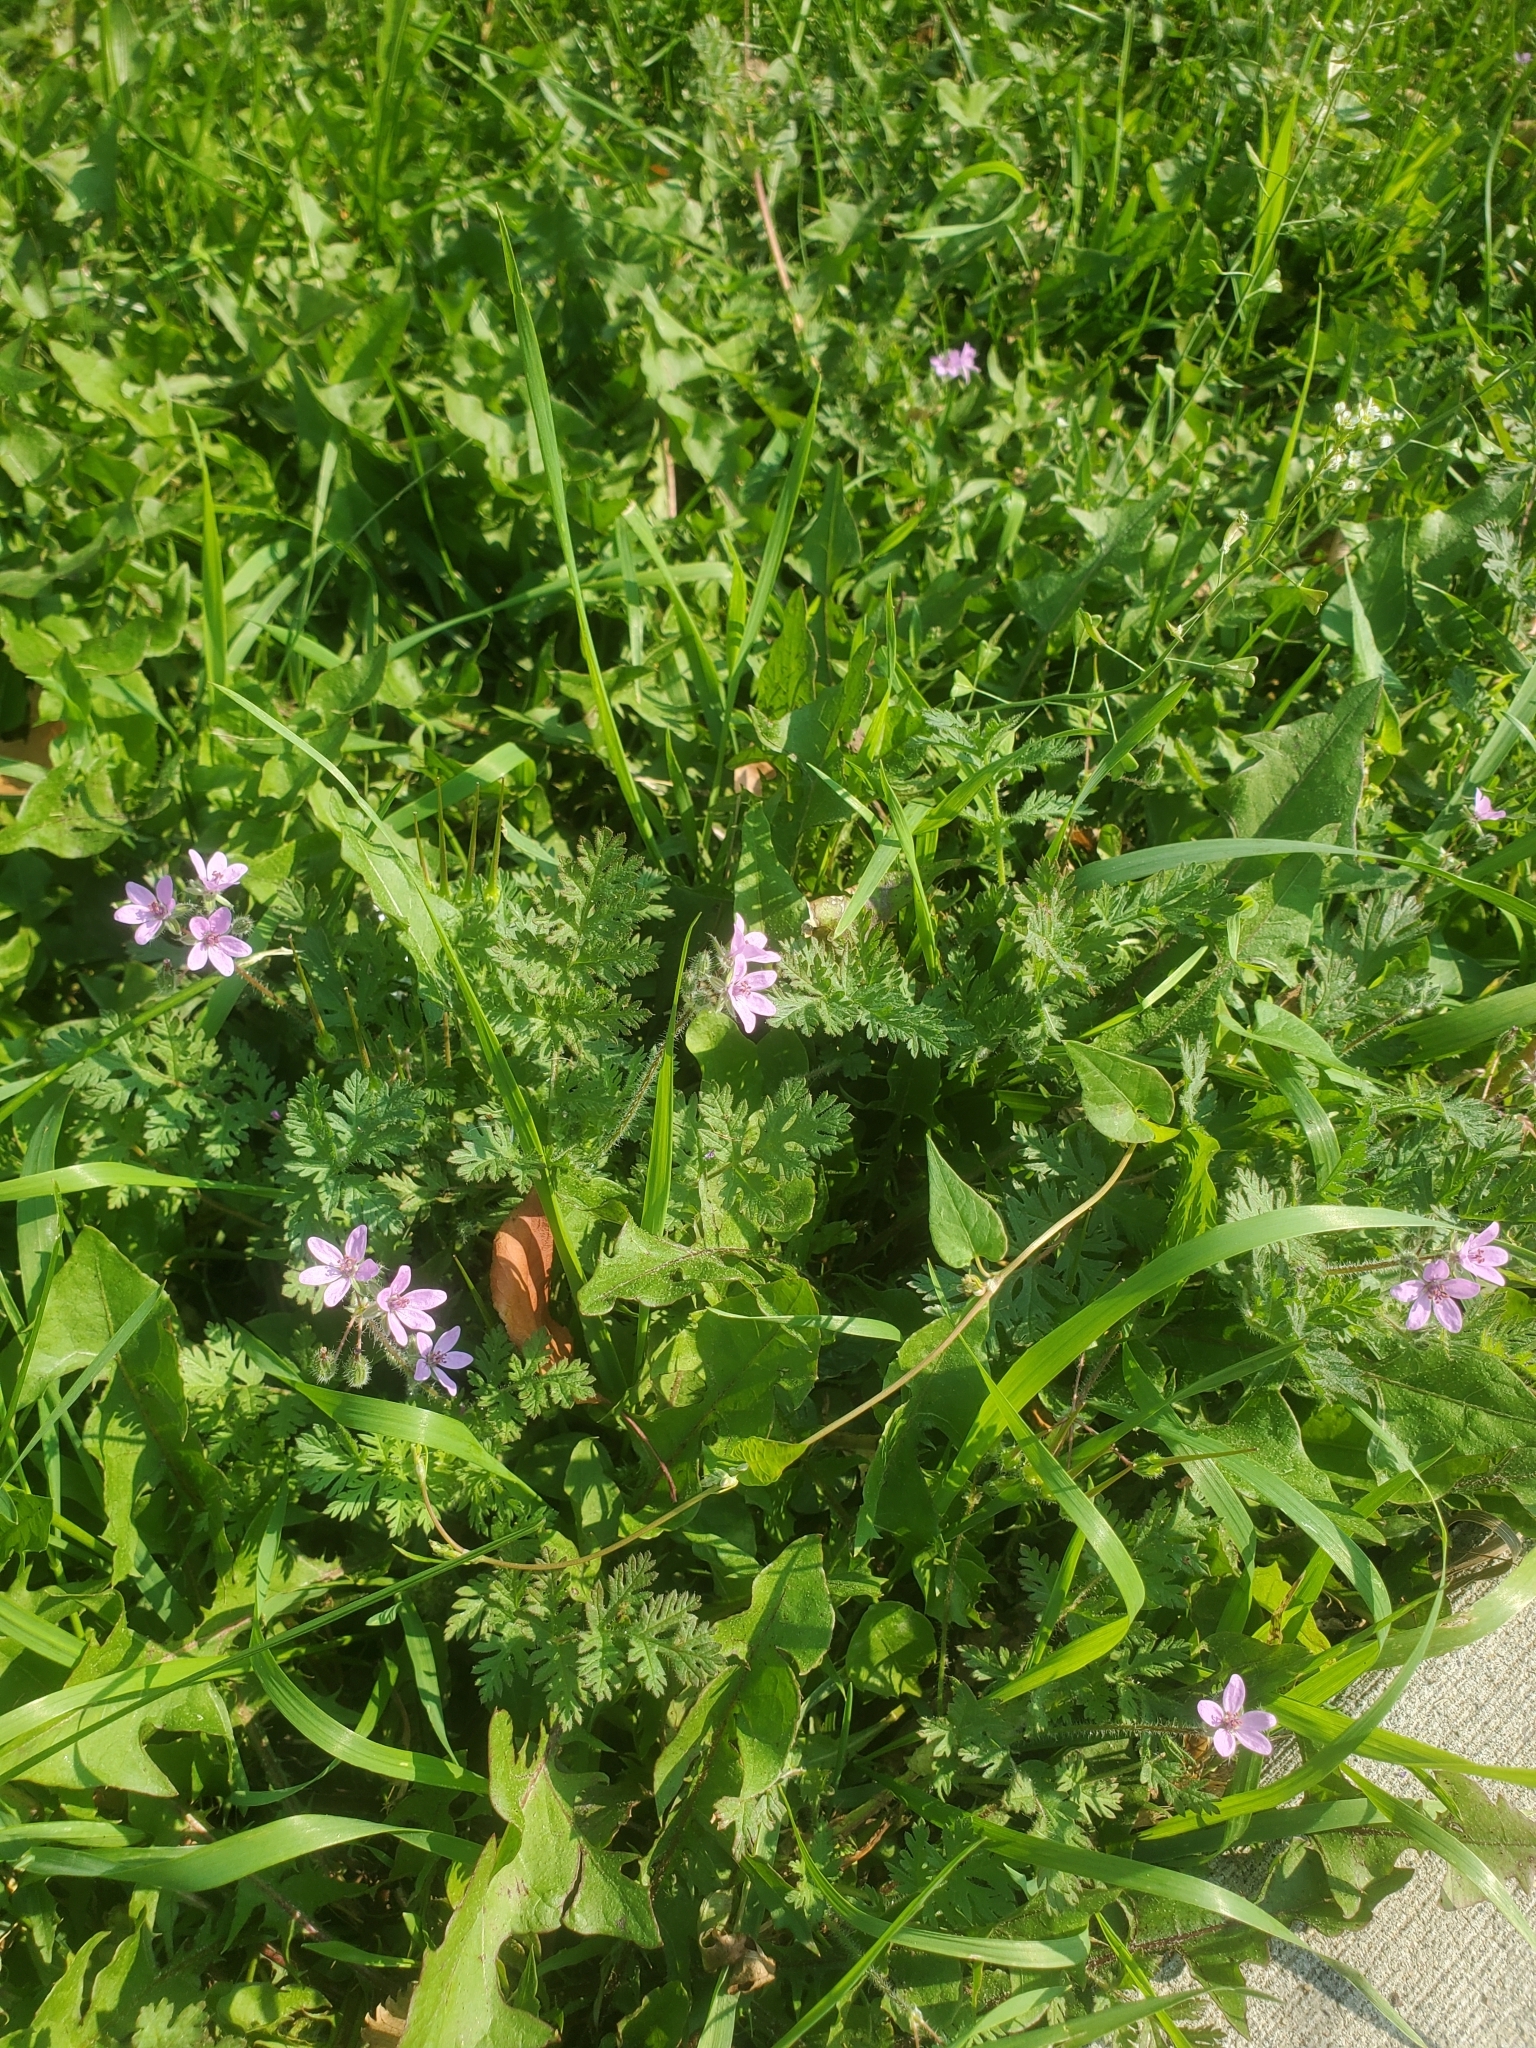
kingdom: Plantae
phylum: Tracheophyta
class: Magnoliopsida
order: Geraniales
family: Geraniaceae
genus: Erodium
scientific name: Erodium cicutarium
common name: Common stork's-bill
